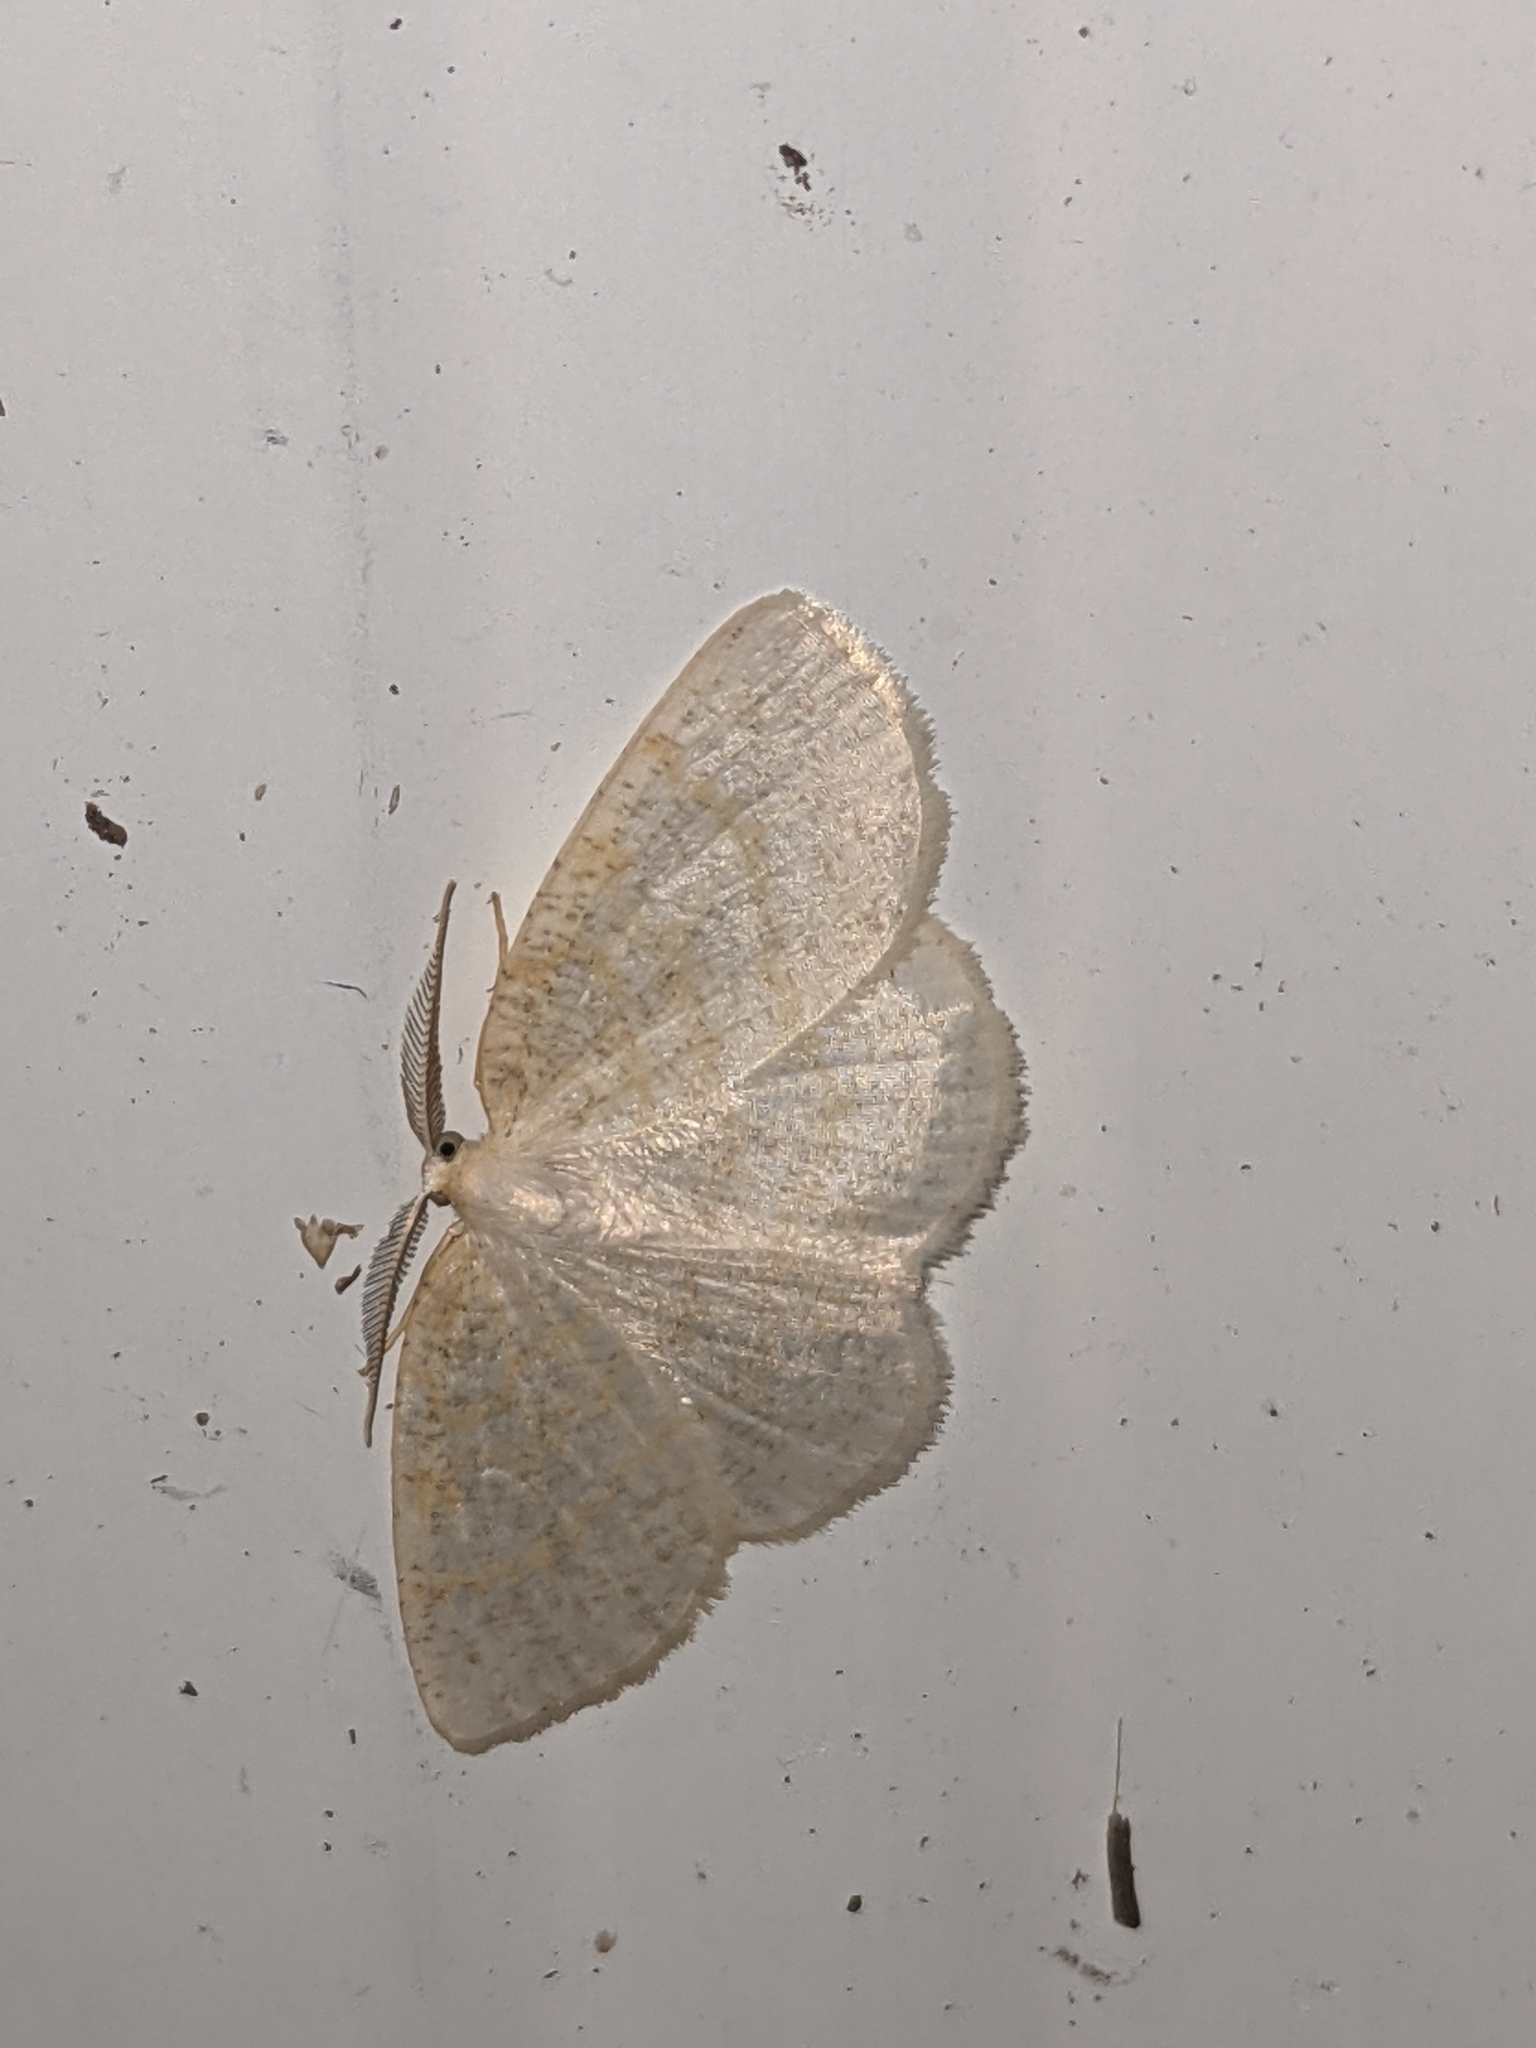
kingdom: Animalia
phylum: Arthropoda
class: Insecta
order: Lepidoptera
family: Geometridae
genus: Cabera
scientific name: Cabera erythemaria
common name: Yellow-dusted cream moth
